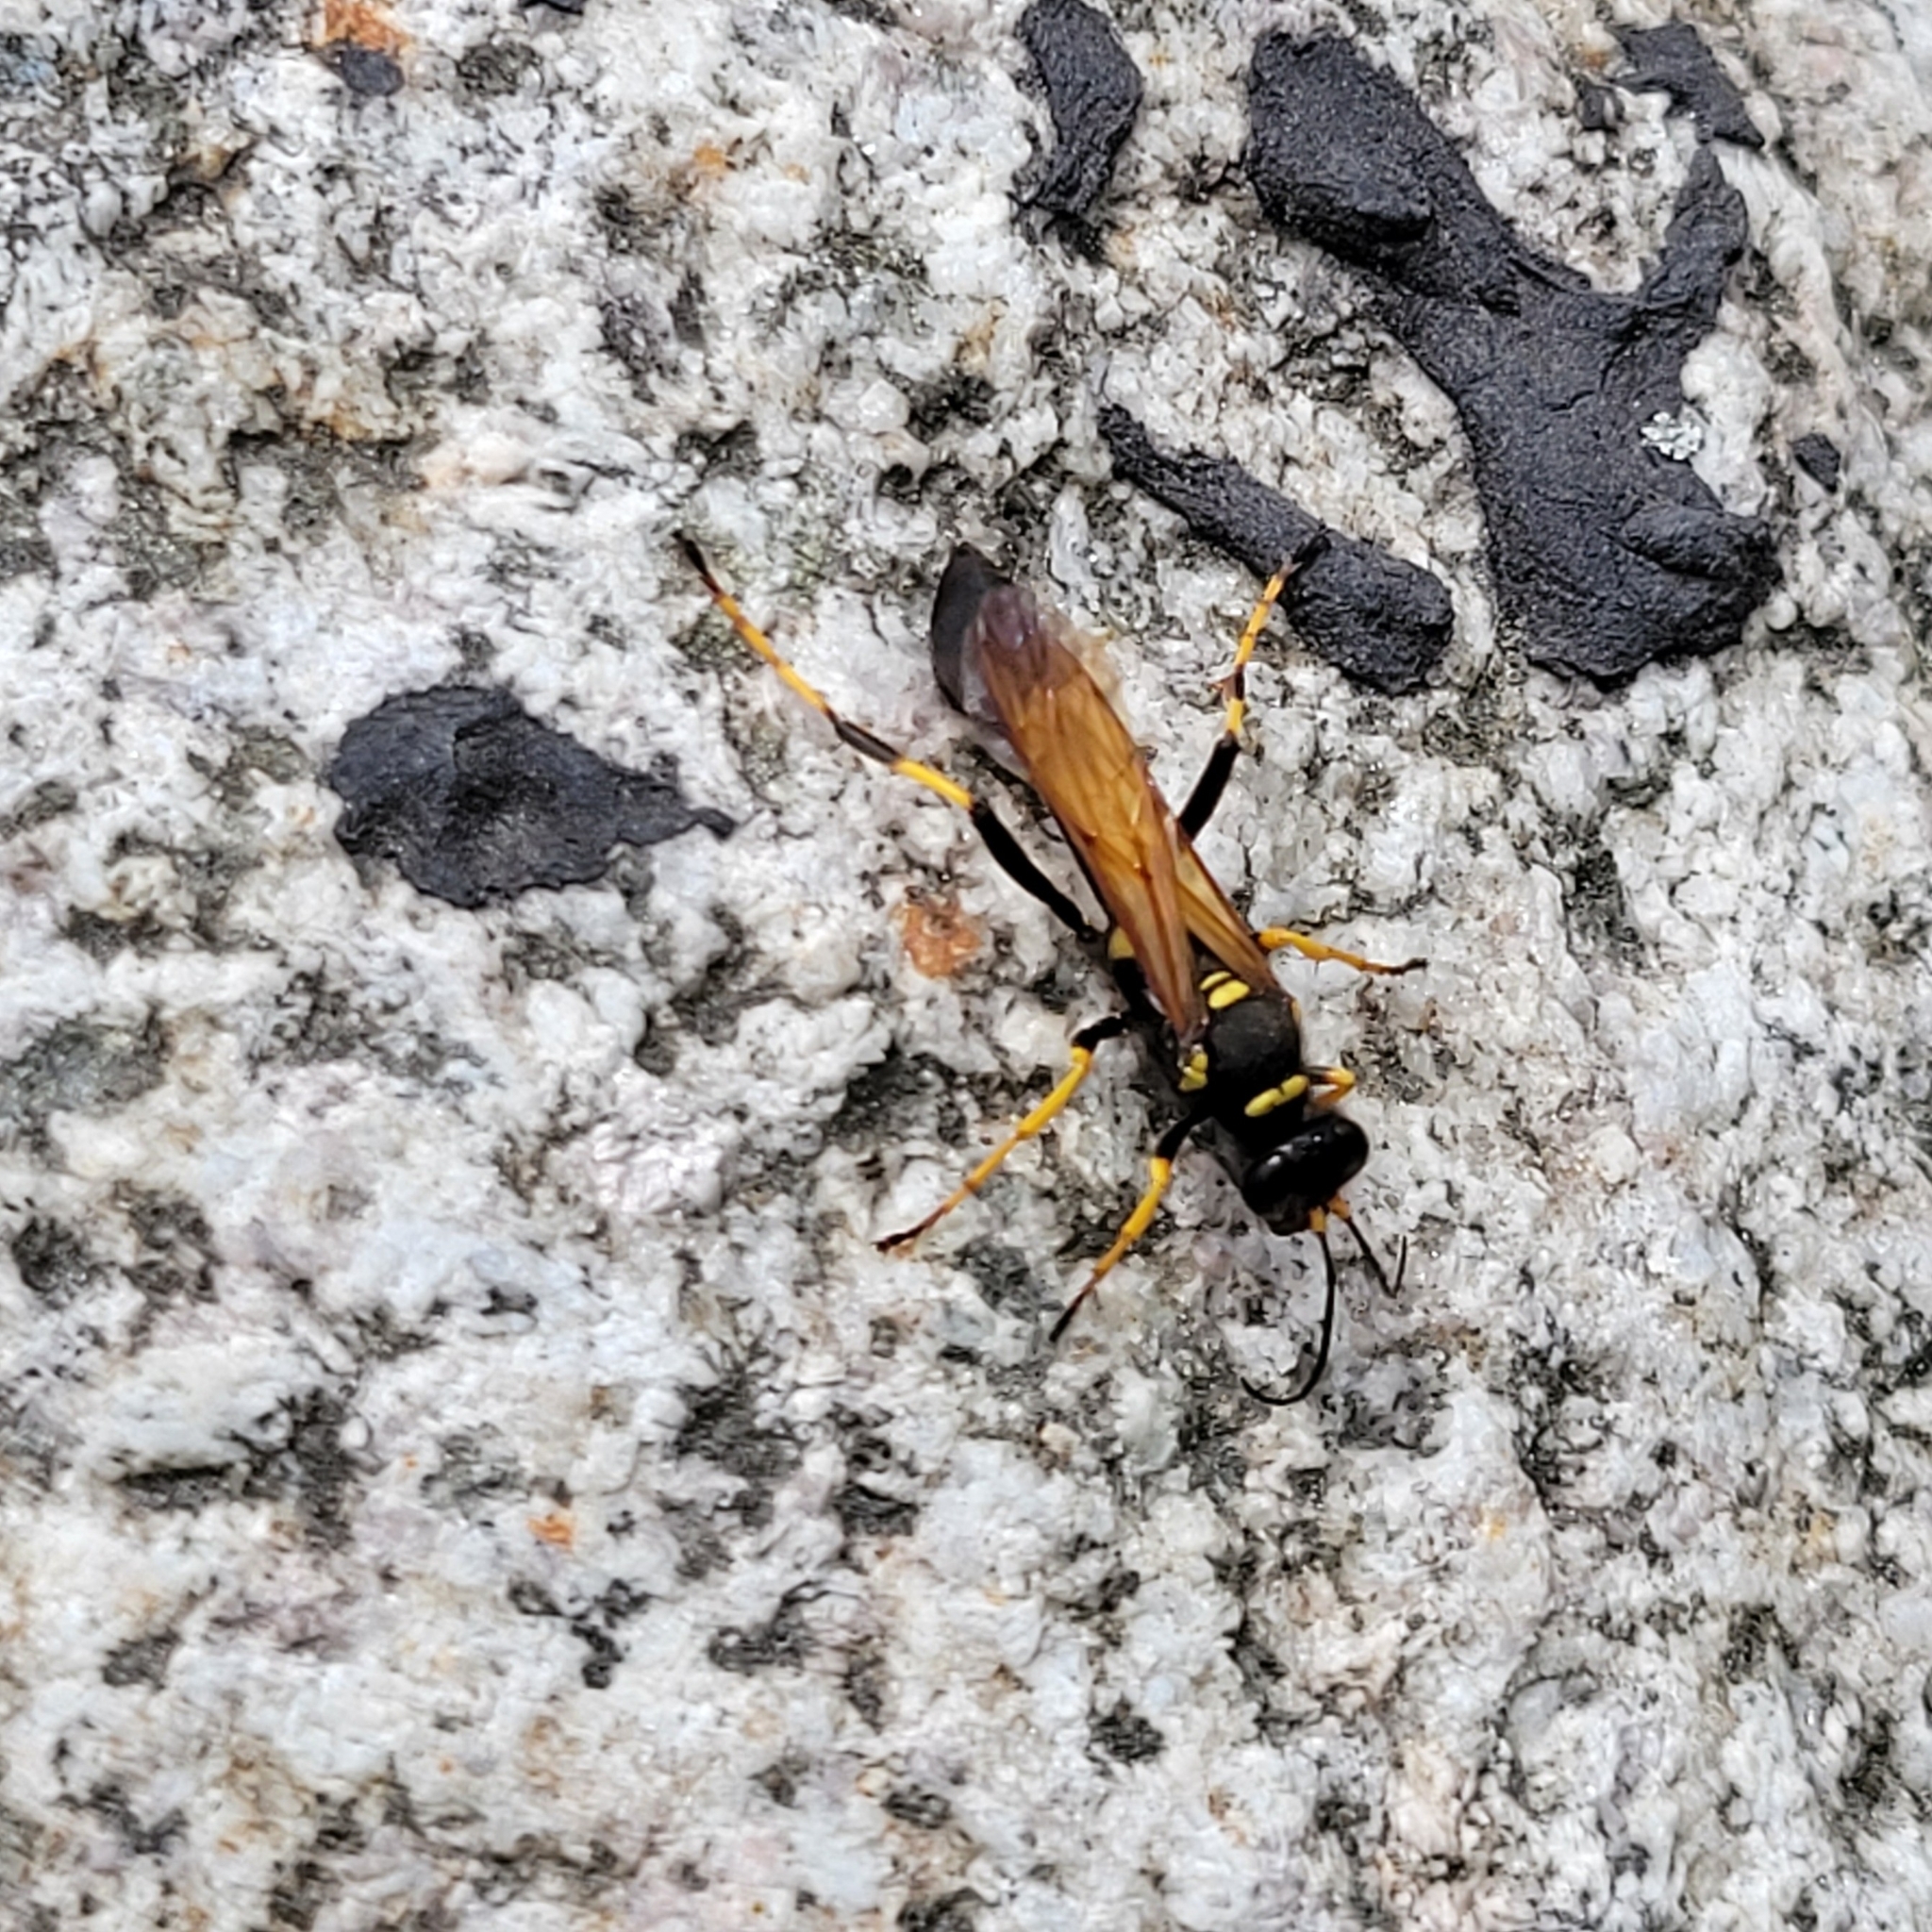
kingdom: Animalia
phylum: Arthropoda
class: Insecta
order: Hymenoptera
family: Sphecidae
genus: Sceliphron
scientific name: Sceliphron caementarium
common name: Mud dauber
